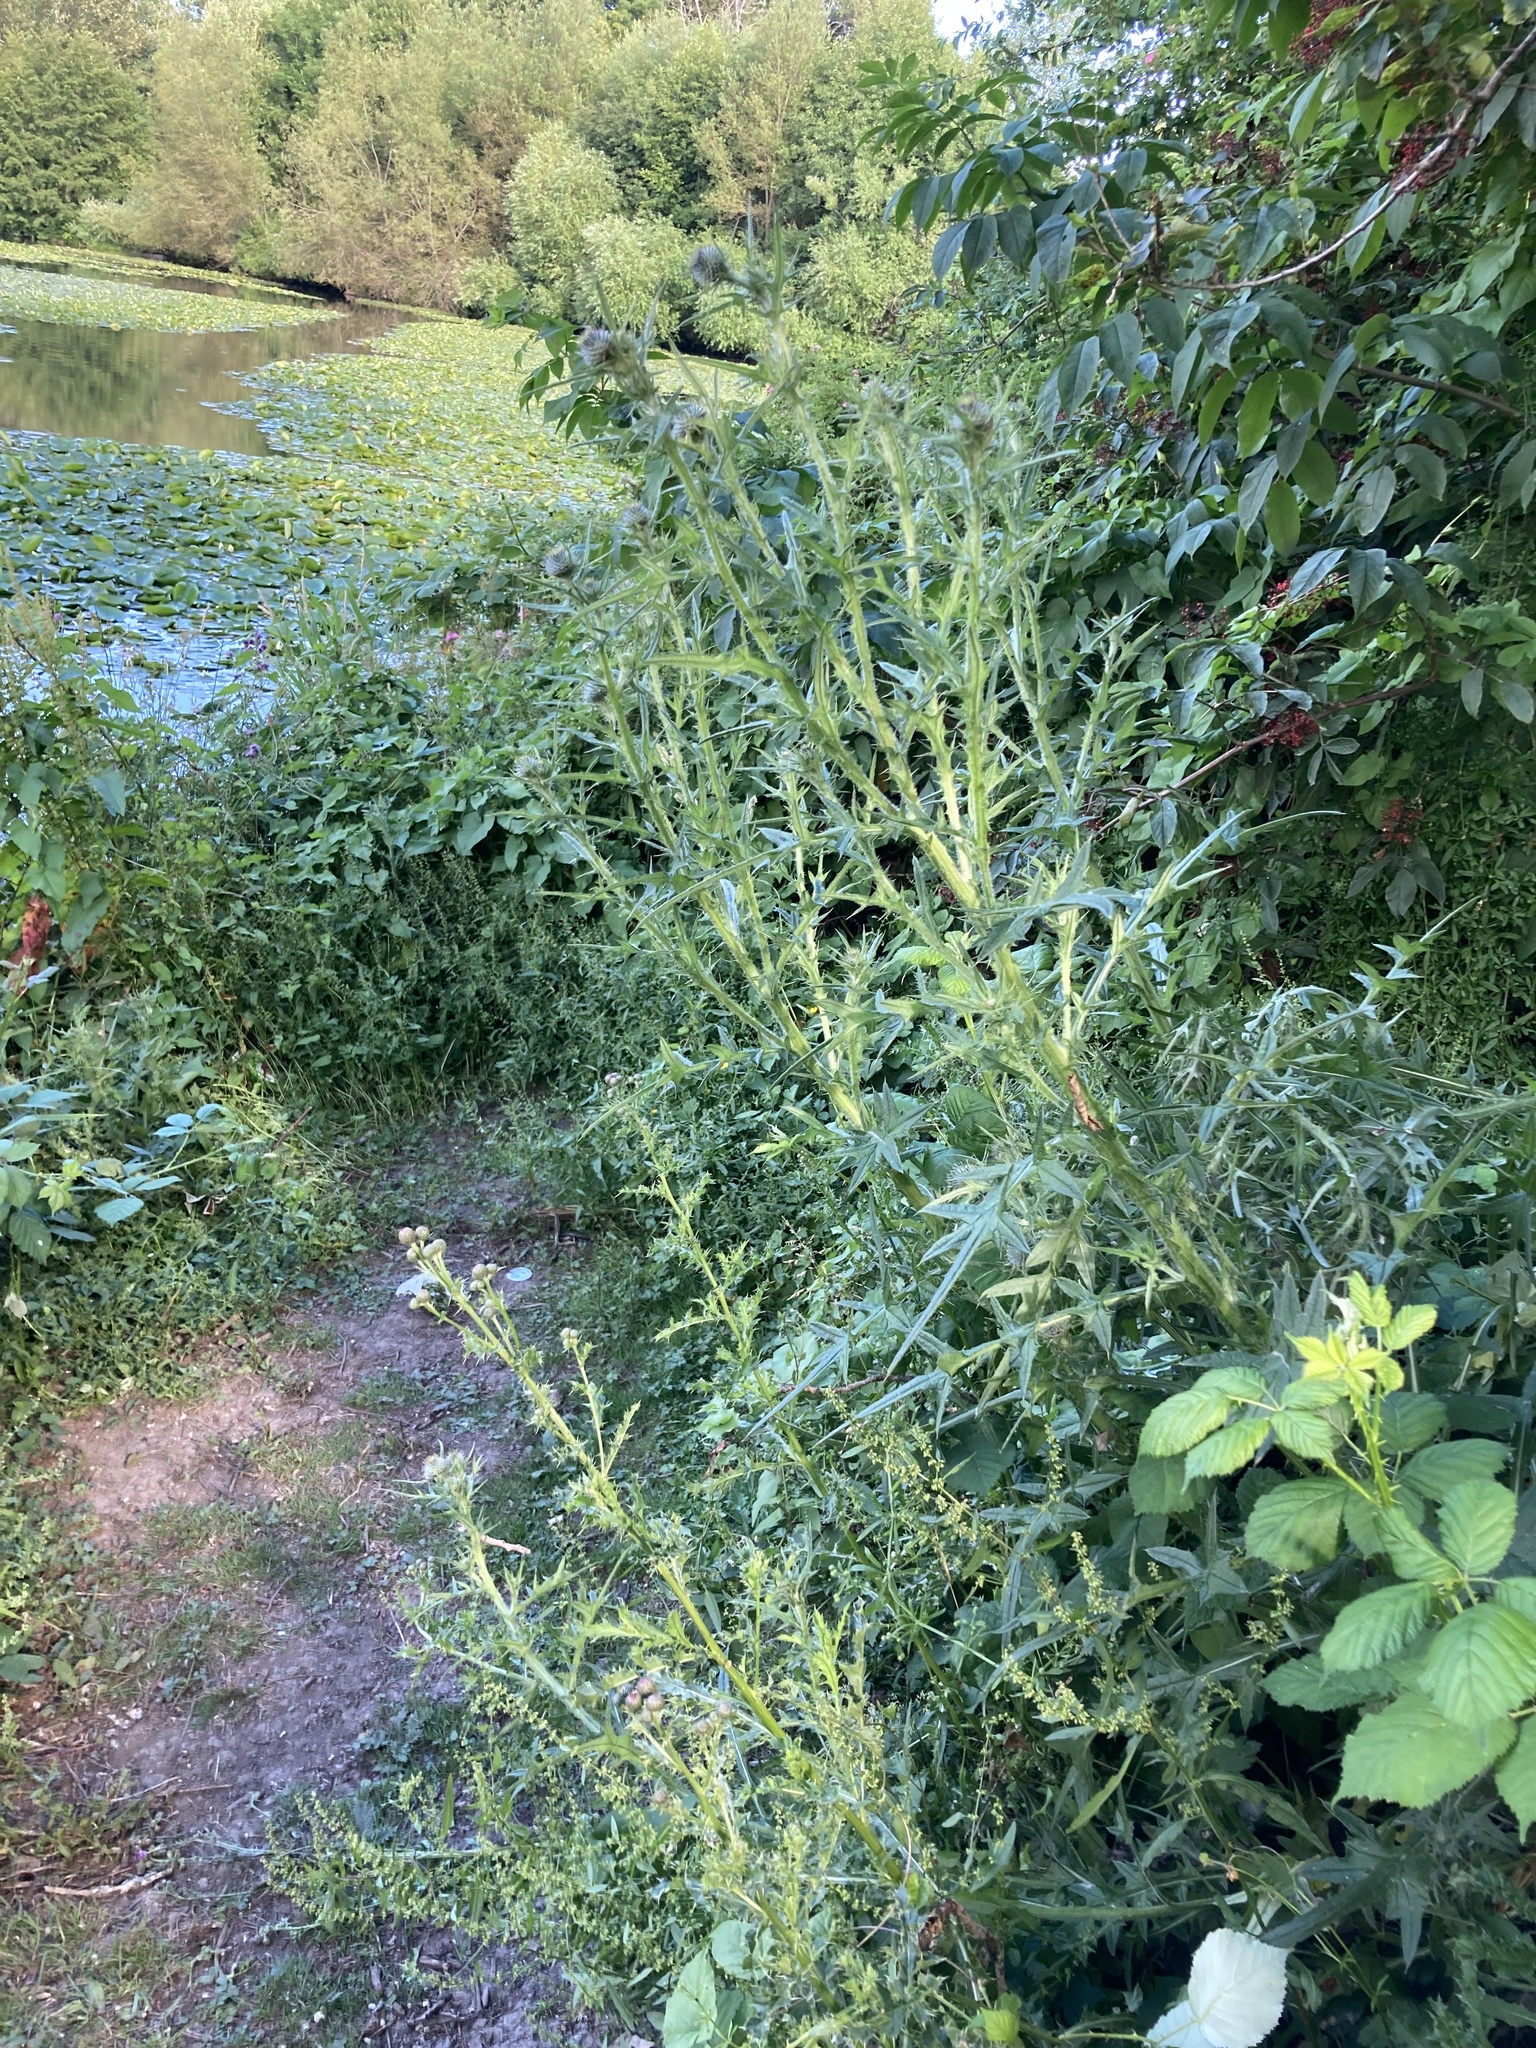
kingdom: Plantae
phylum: Tracheophyta
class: Magnoliopsida
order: Asterales
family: Asteraceae
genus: Cirsium
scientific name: Cirsium vulgare
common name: Bull thistle
